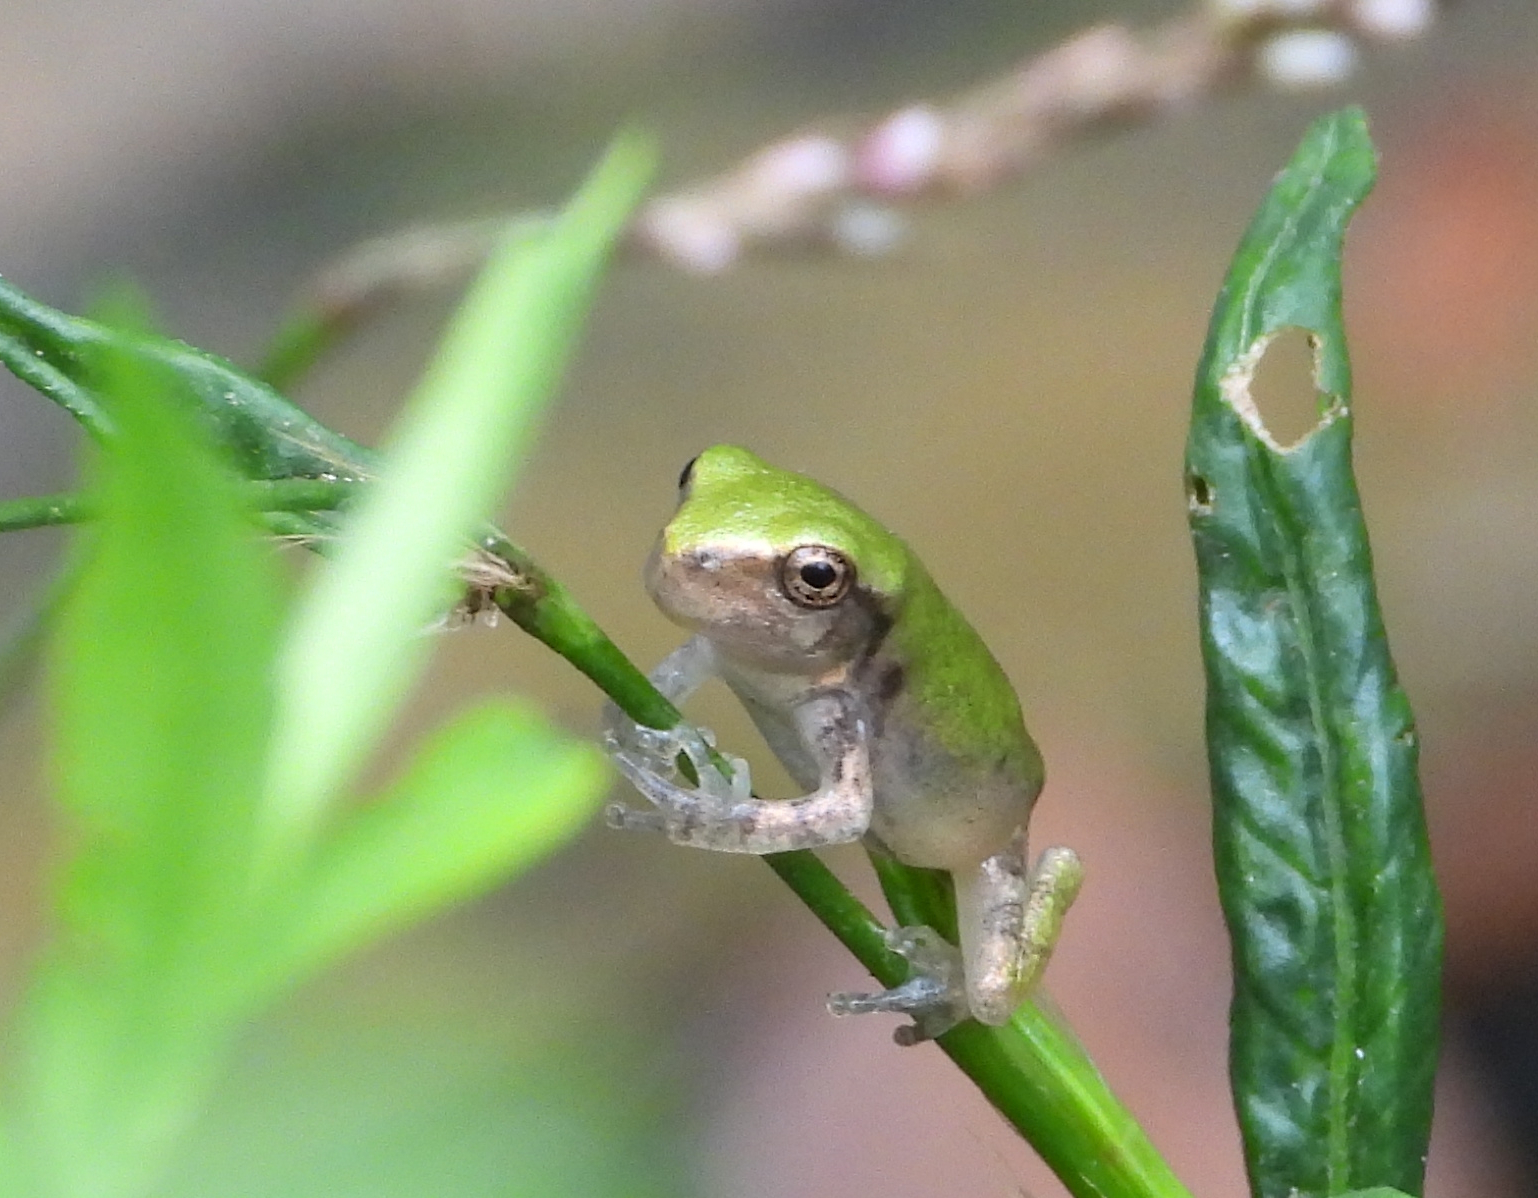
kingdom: Animalia
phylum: Chordata
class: Amphibia
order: Anura
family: Hylidae
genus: Hyla
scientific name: Hyla
